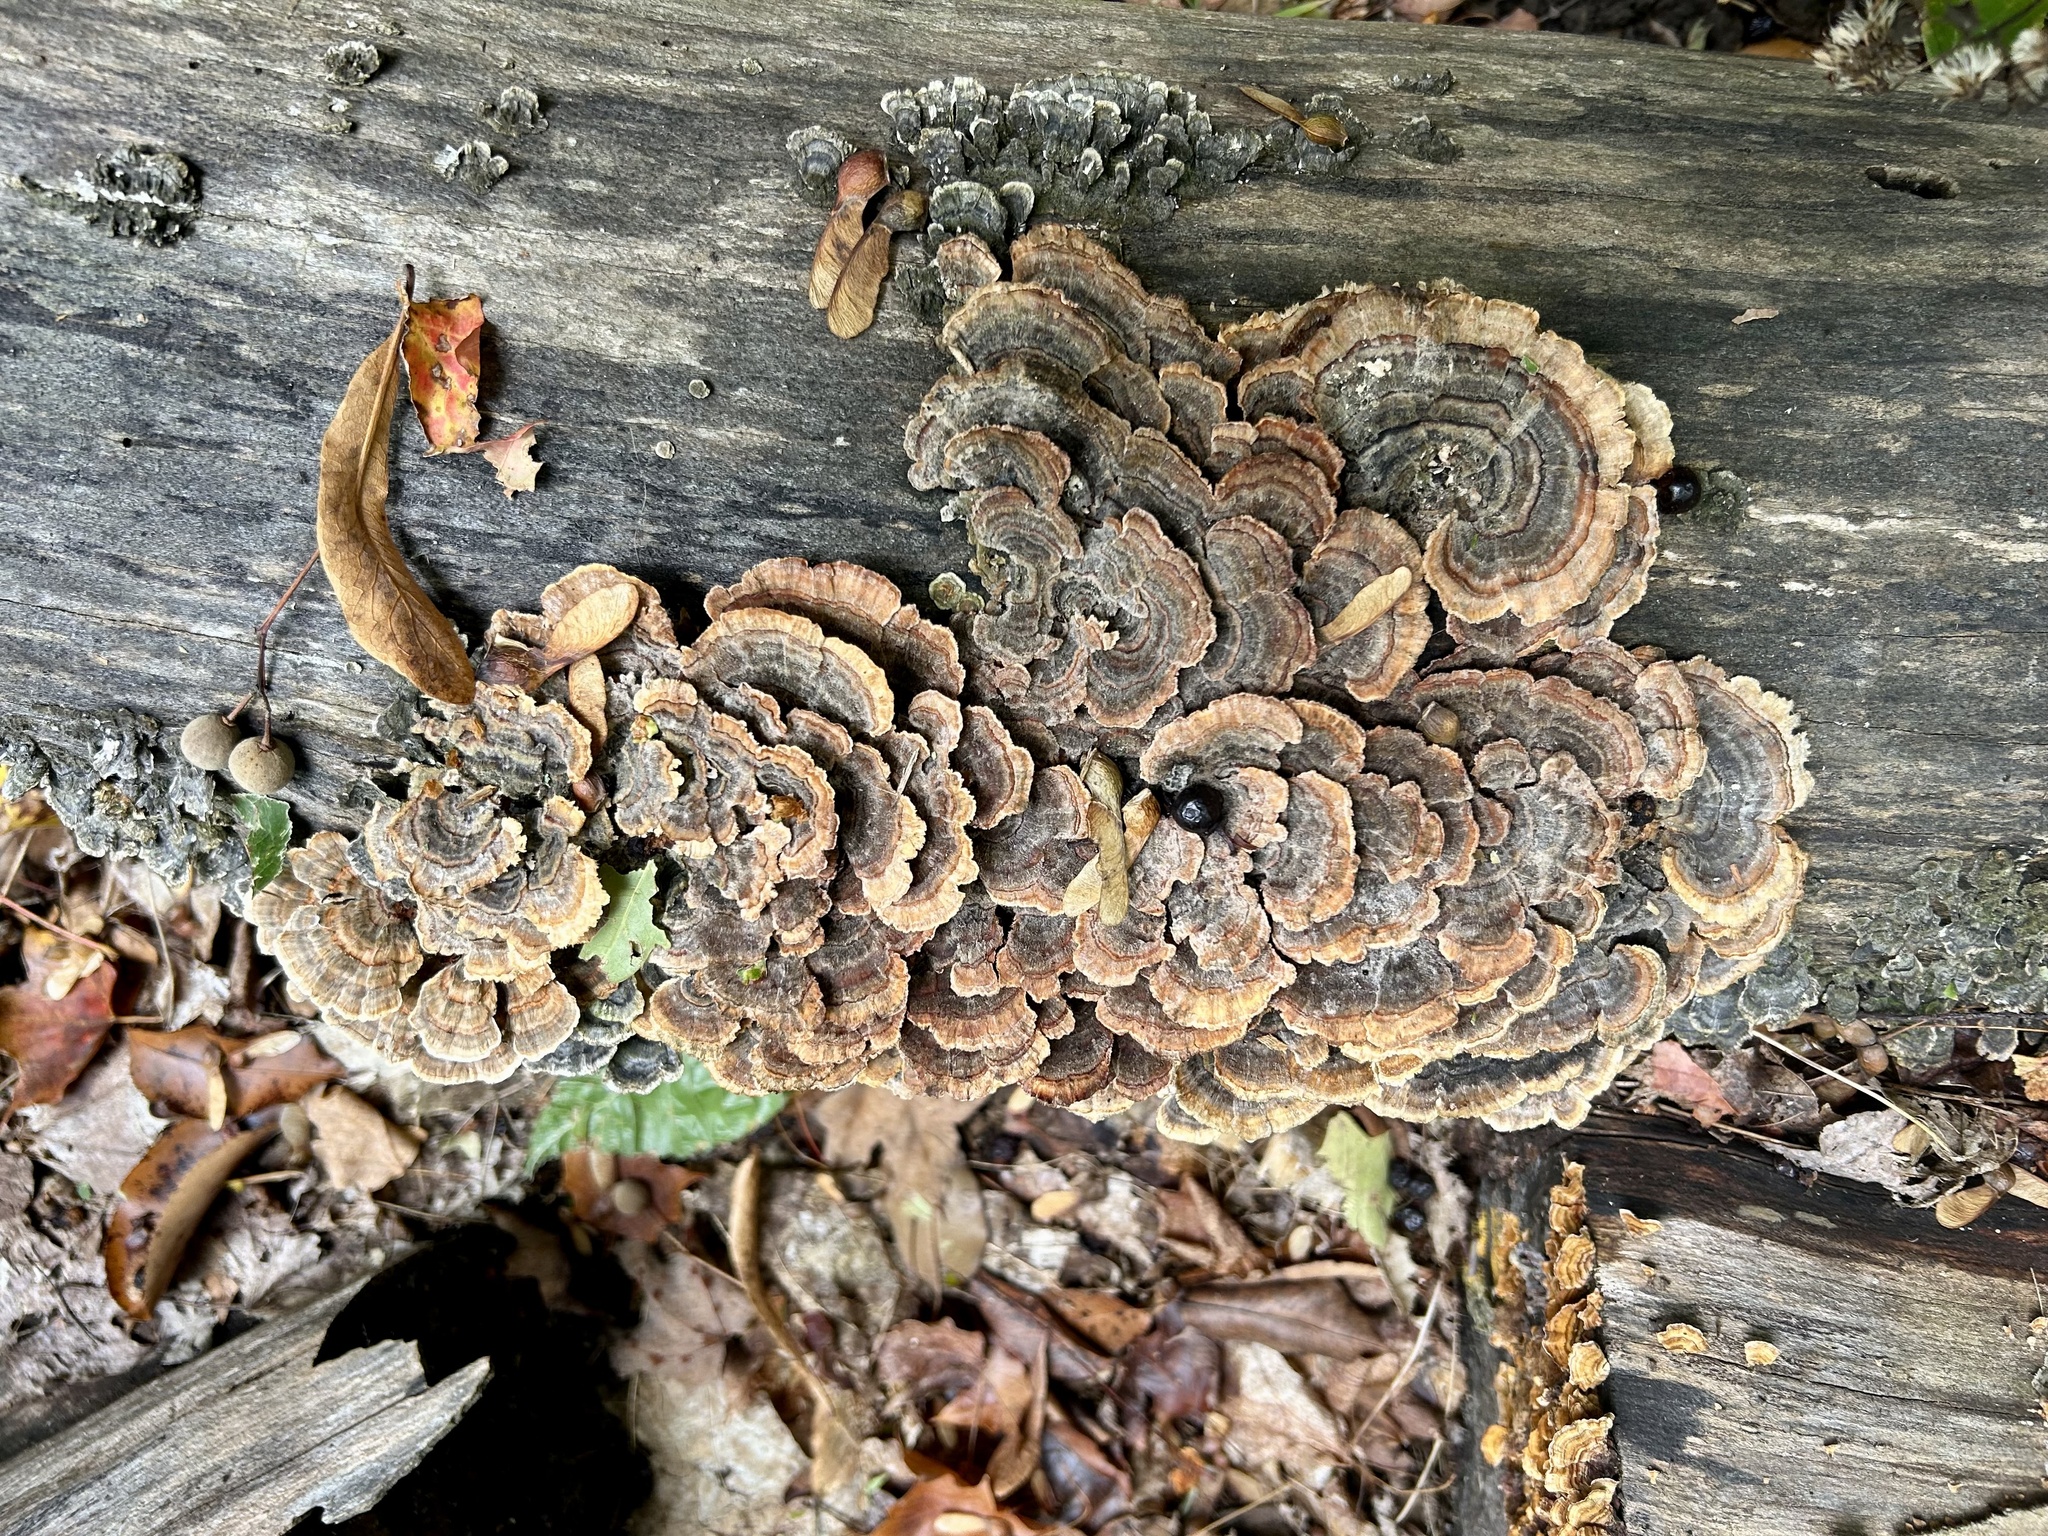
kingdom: Fungi
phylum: Basidiomycota
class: Agaricomycetes
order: Polyporales
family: Polyporaceae
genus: Trametes
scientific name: Trametes versicolor
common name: Turkeytail
